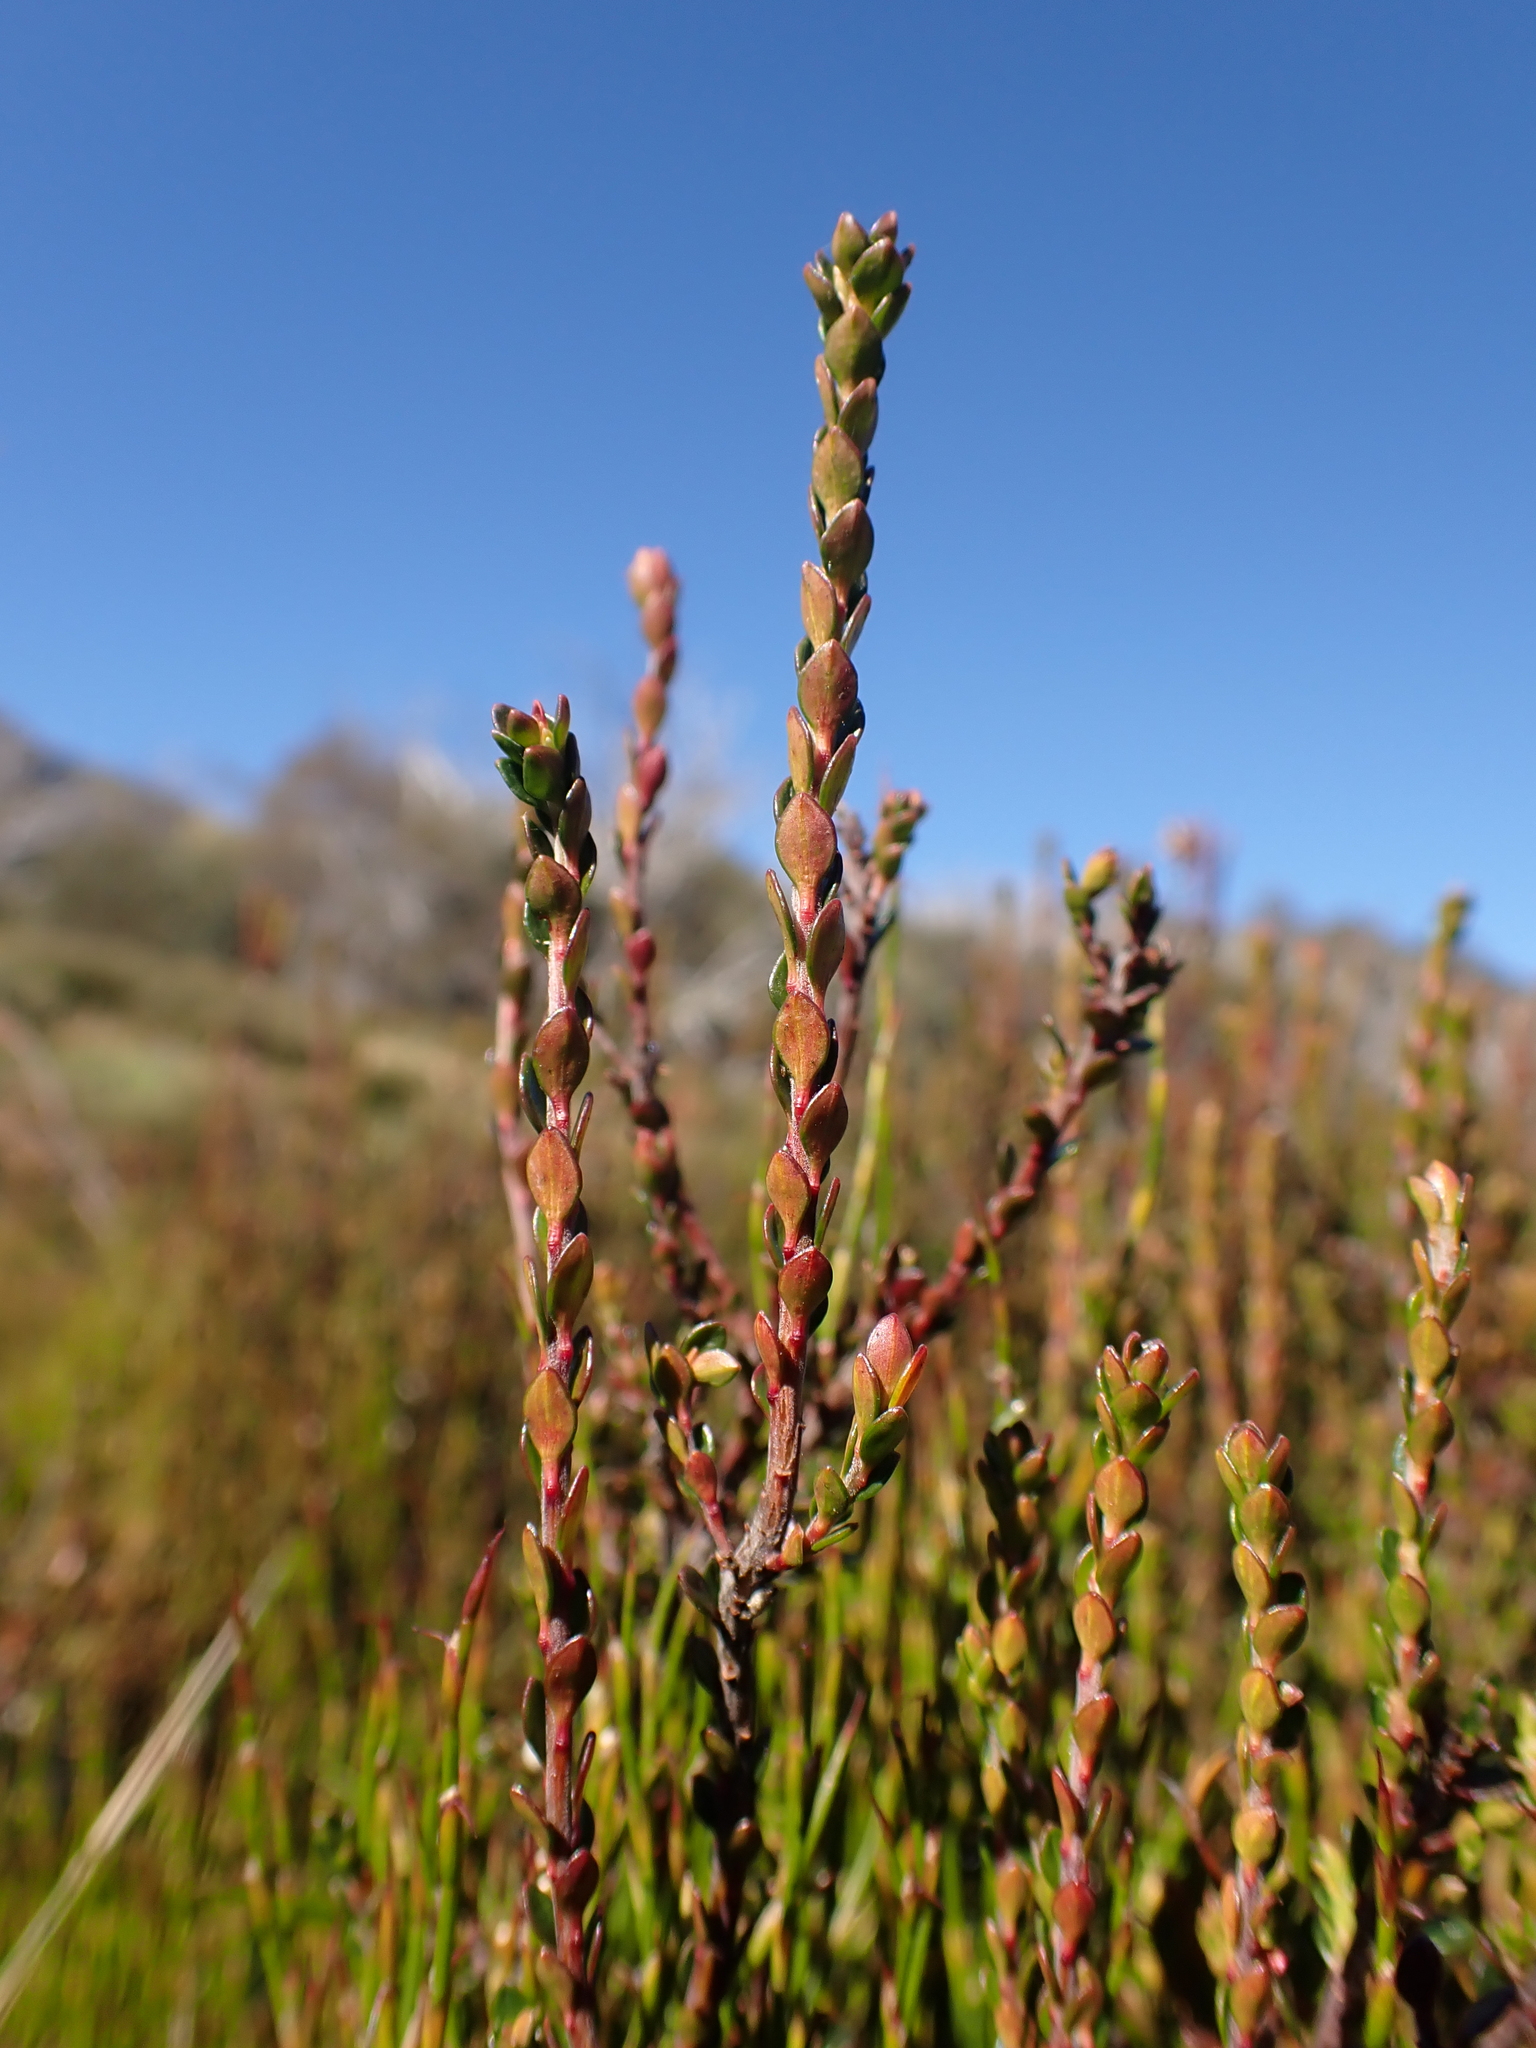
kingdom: Plantae
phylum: Tracheophyta
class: Magnoliopsida
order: Ericales
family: Ericaceae
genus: Epacris
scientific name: Epacris celata
